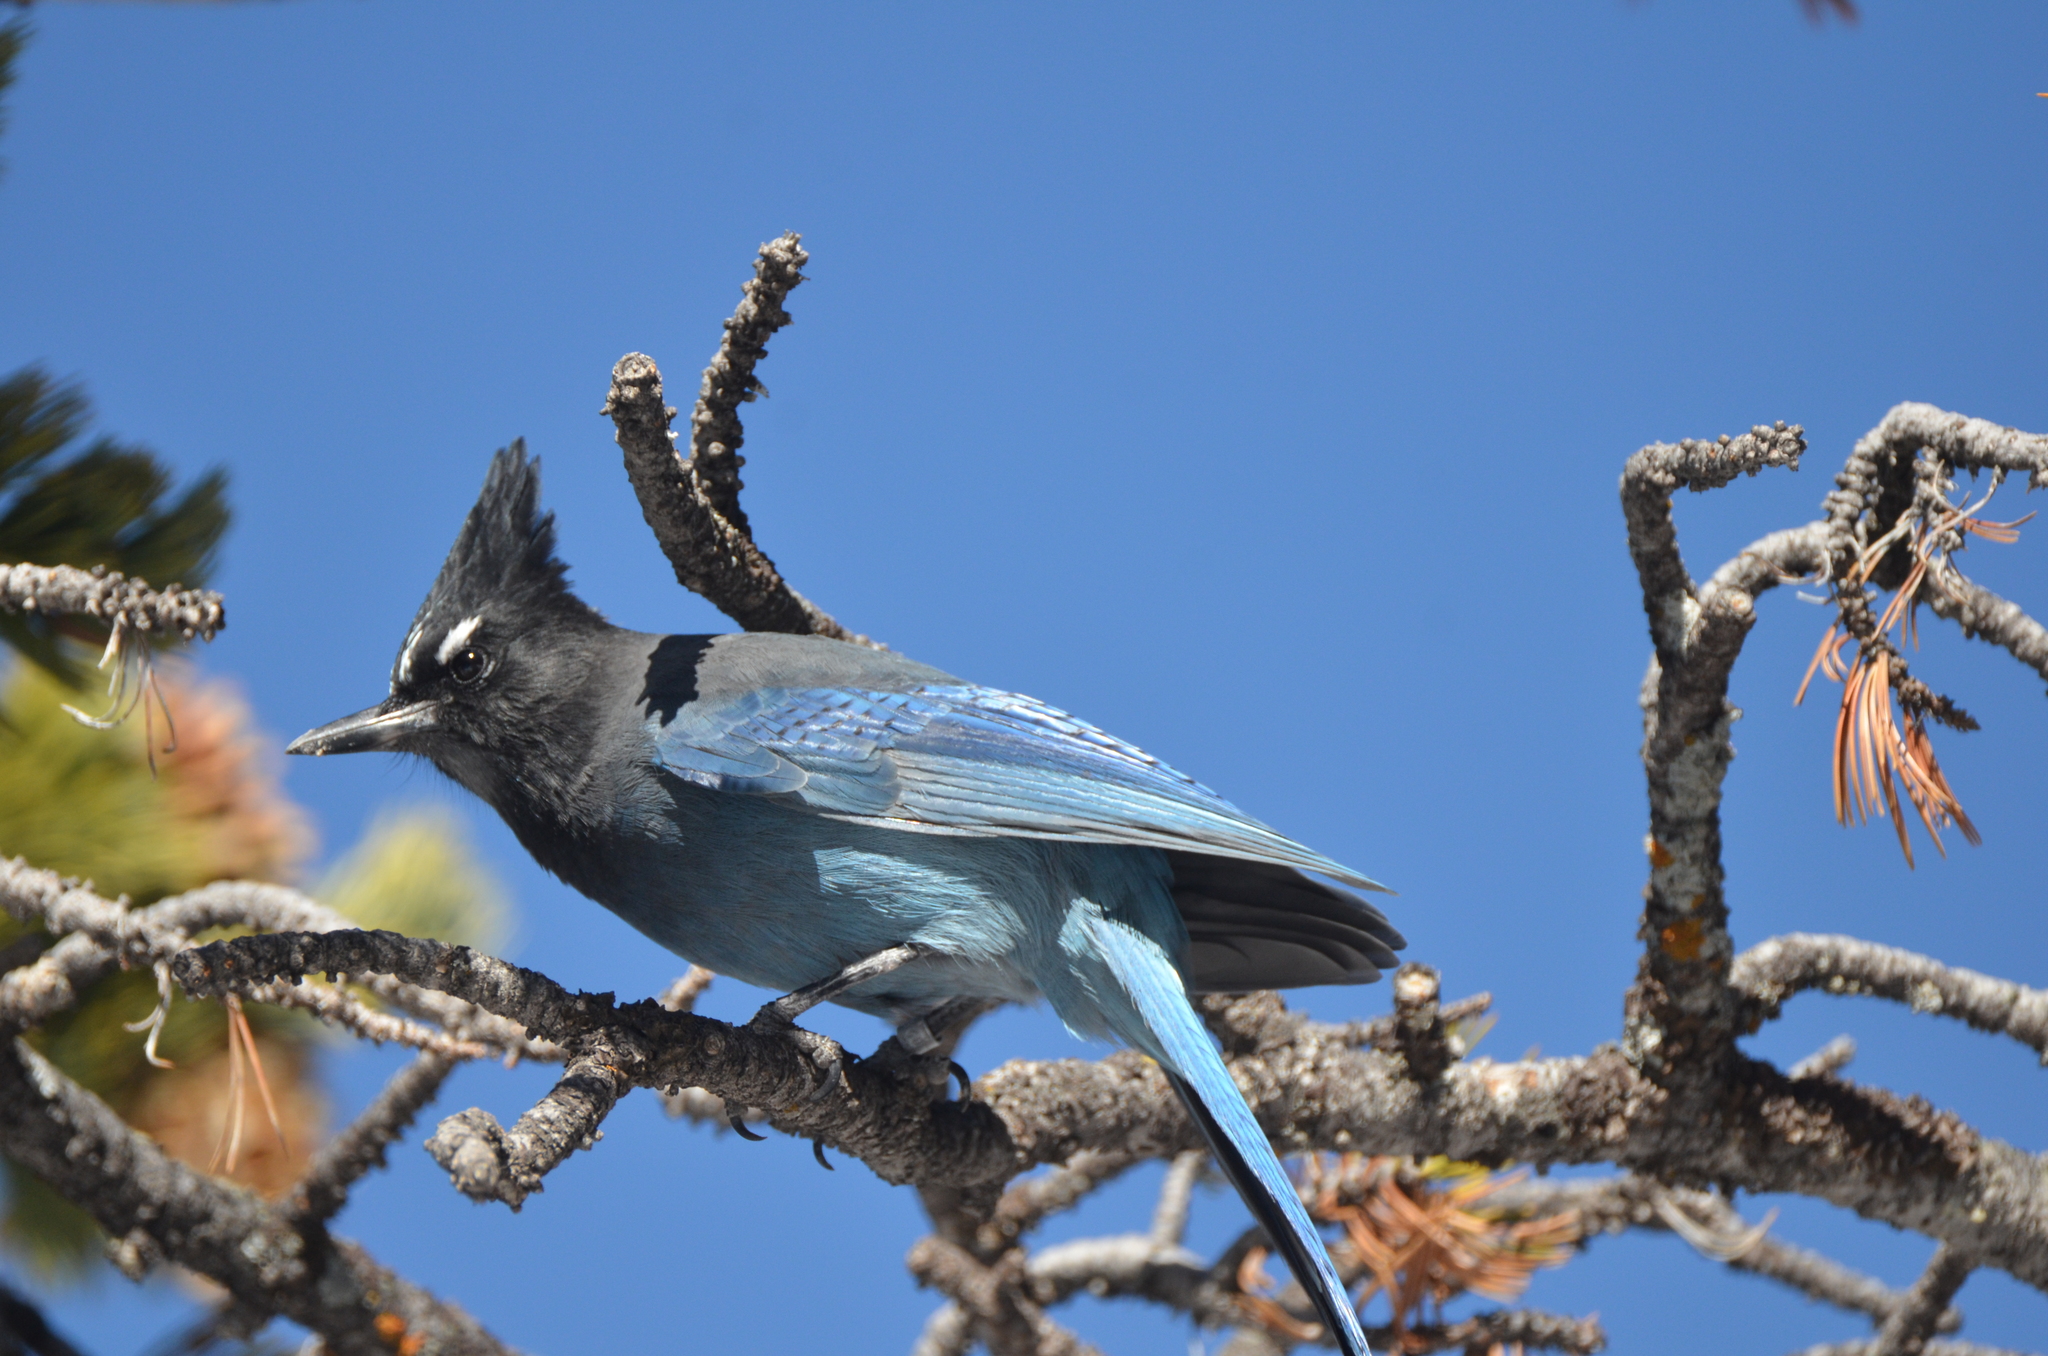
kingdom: Animalia
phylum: Chordata
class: Aves
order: Passeriformes
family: Corvidae
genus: Cyanocitta
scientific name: Cyanocitta stelleri
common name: Steller's jay
